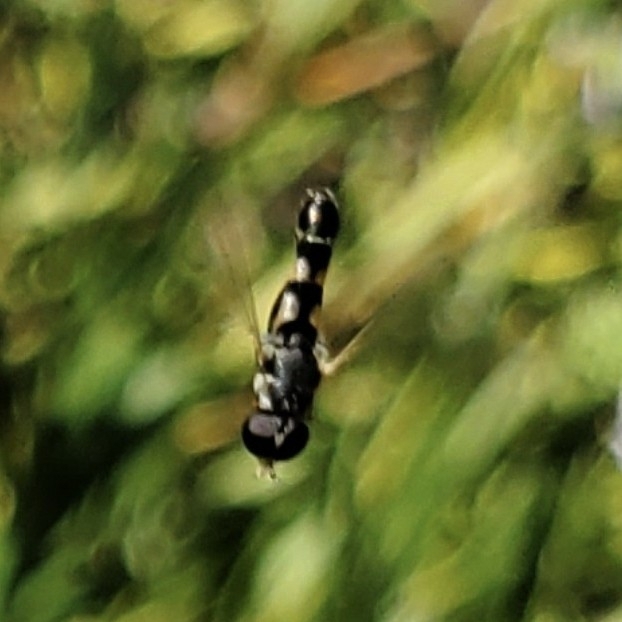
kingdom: Animalia
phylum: Arthropoda
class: Insecta
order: Diptera
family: Syrphidae
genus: Syritta
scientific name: Syritta pipiens
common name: Hover fly
